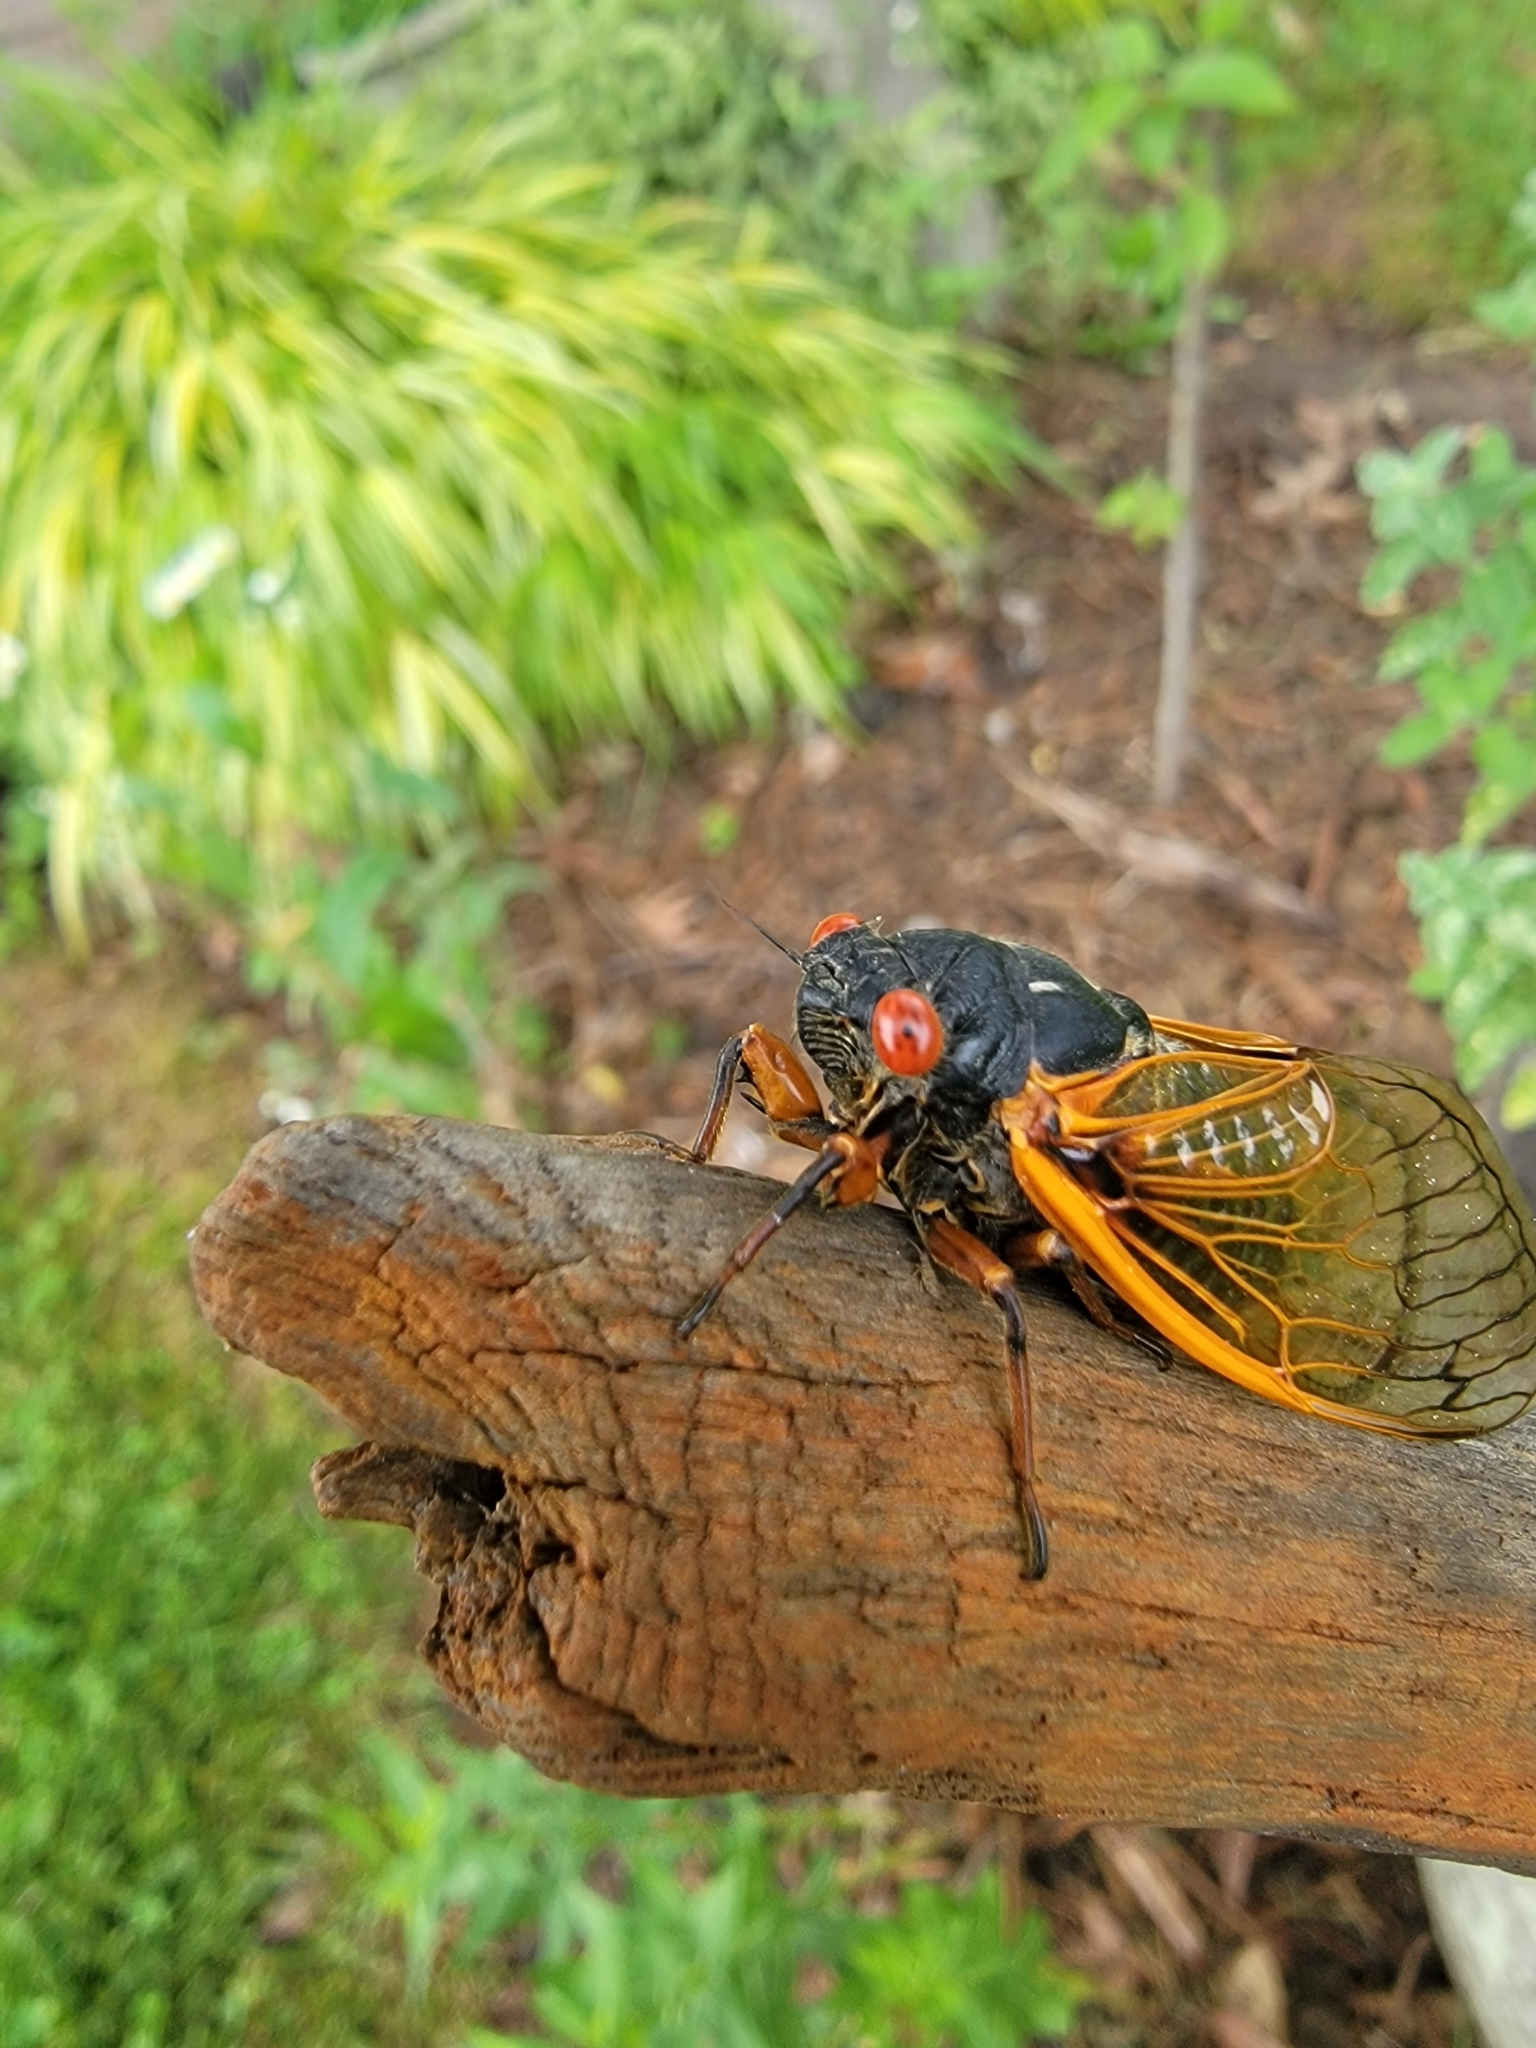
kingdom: Animalia
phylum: Arthropoda
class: Insecta
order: Hemiptera
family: Cicadidae
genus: Magicicada
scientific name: Magicicada
